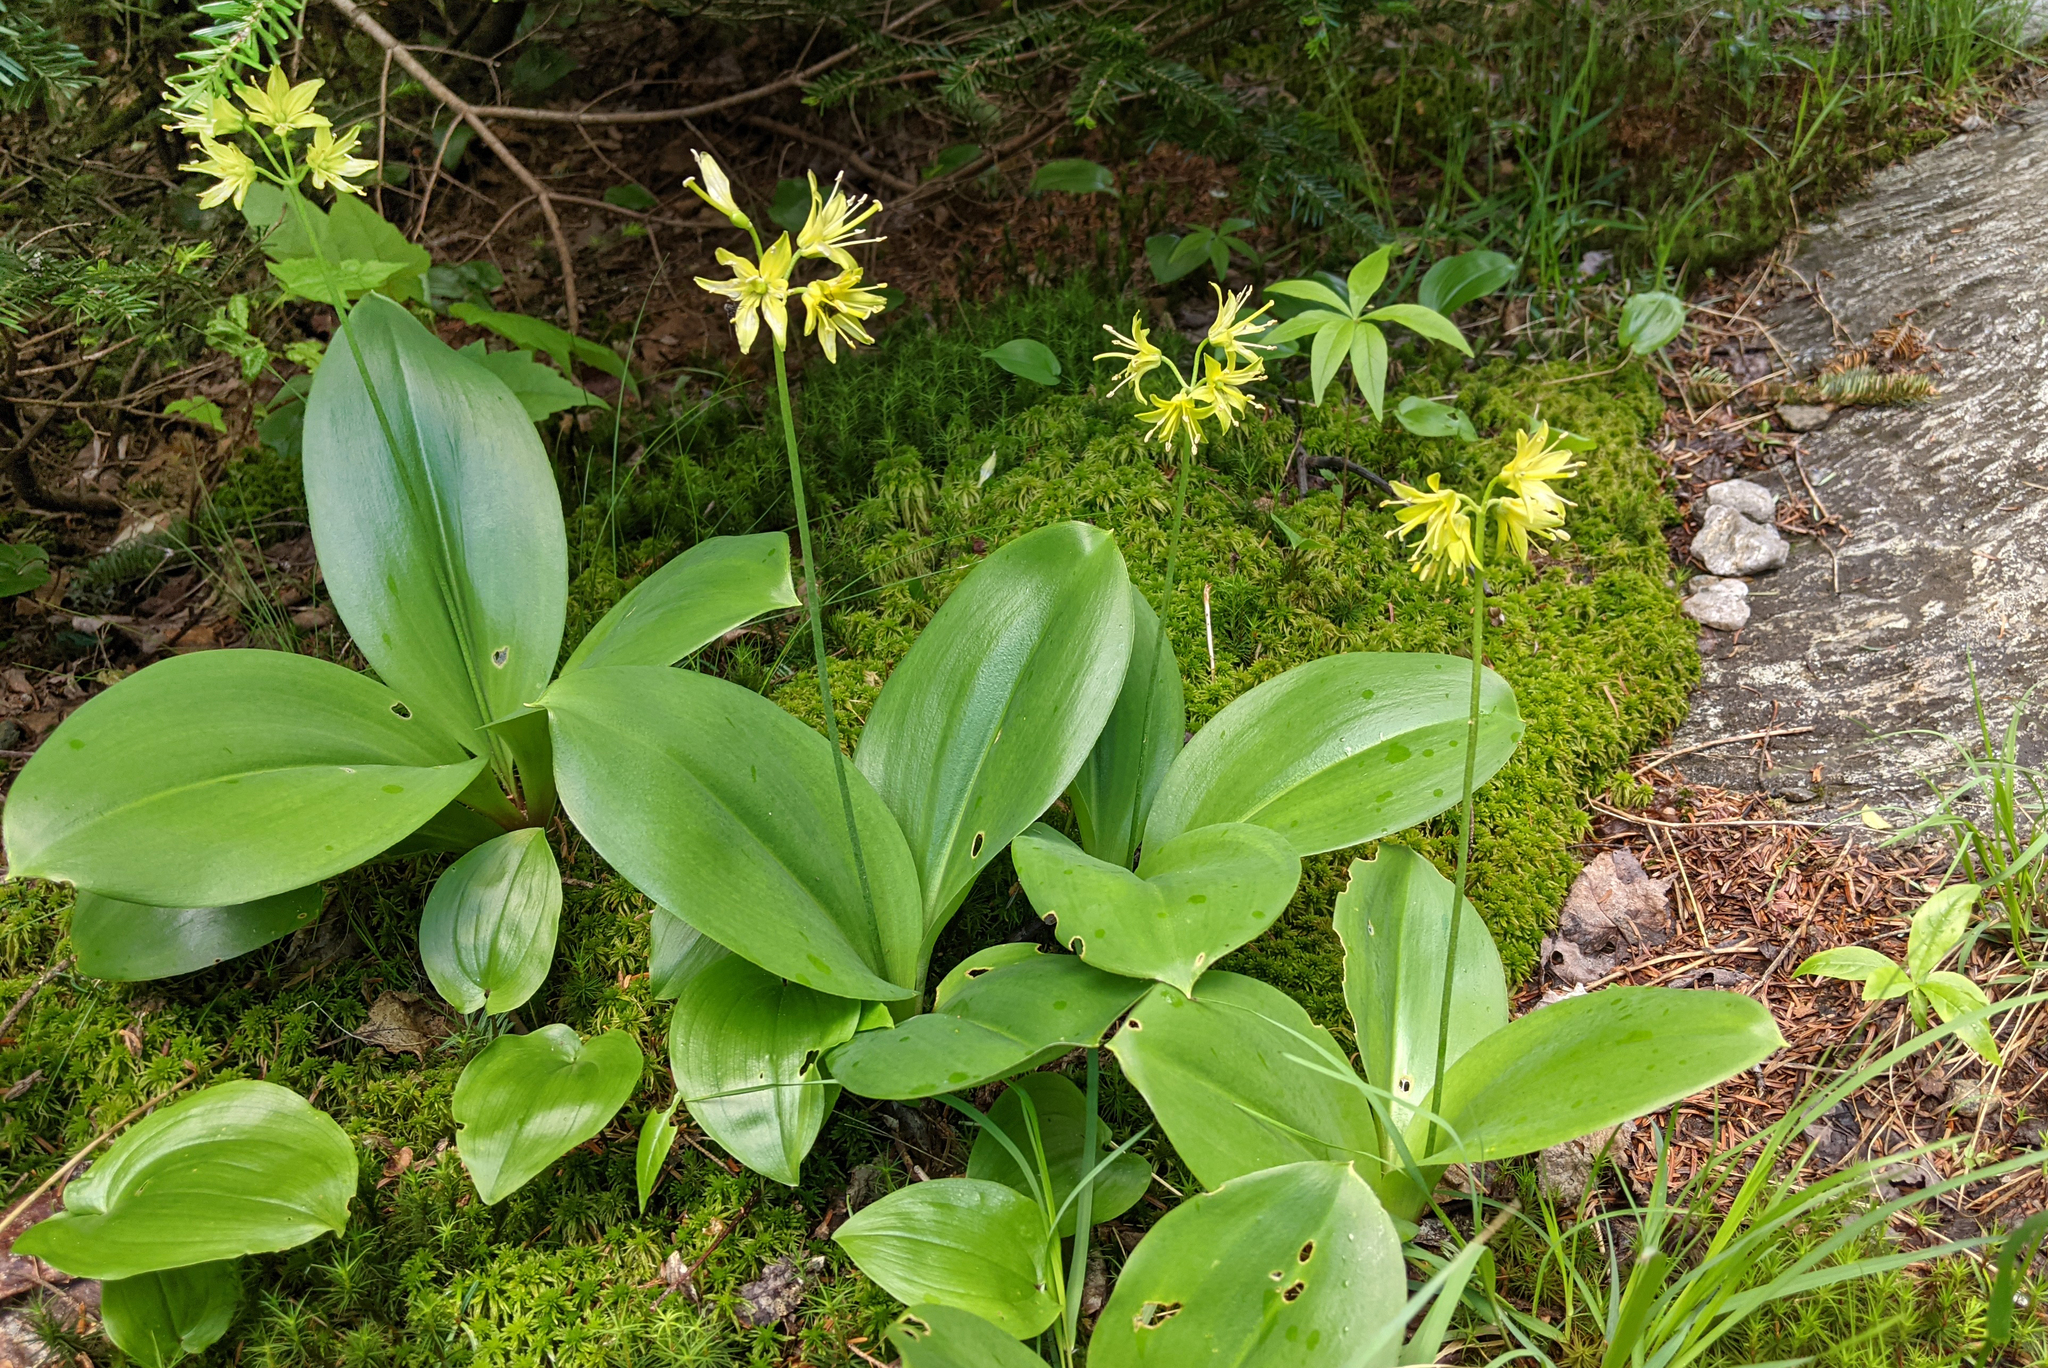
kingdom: Plantae
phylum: Tracheophyta
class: Liliopsida
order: Liliales
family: Liliaceae
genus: Clintonia
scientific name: Clintonia borealis
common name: Yellow clintonia
